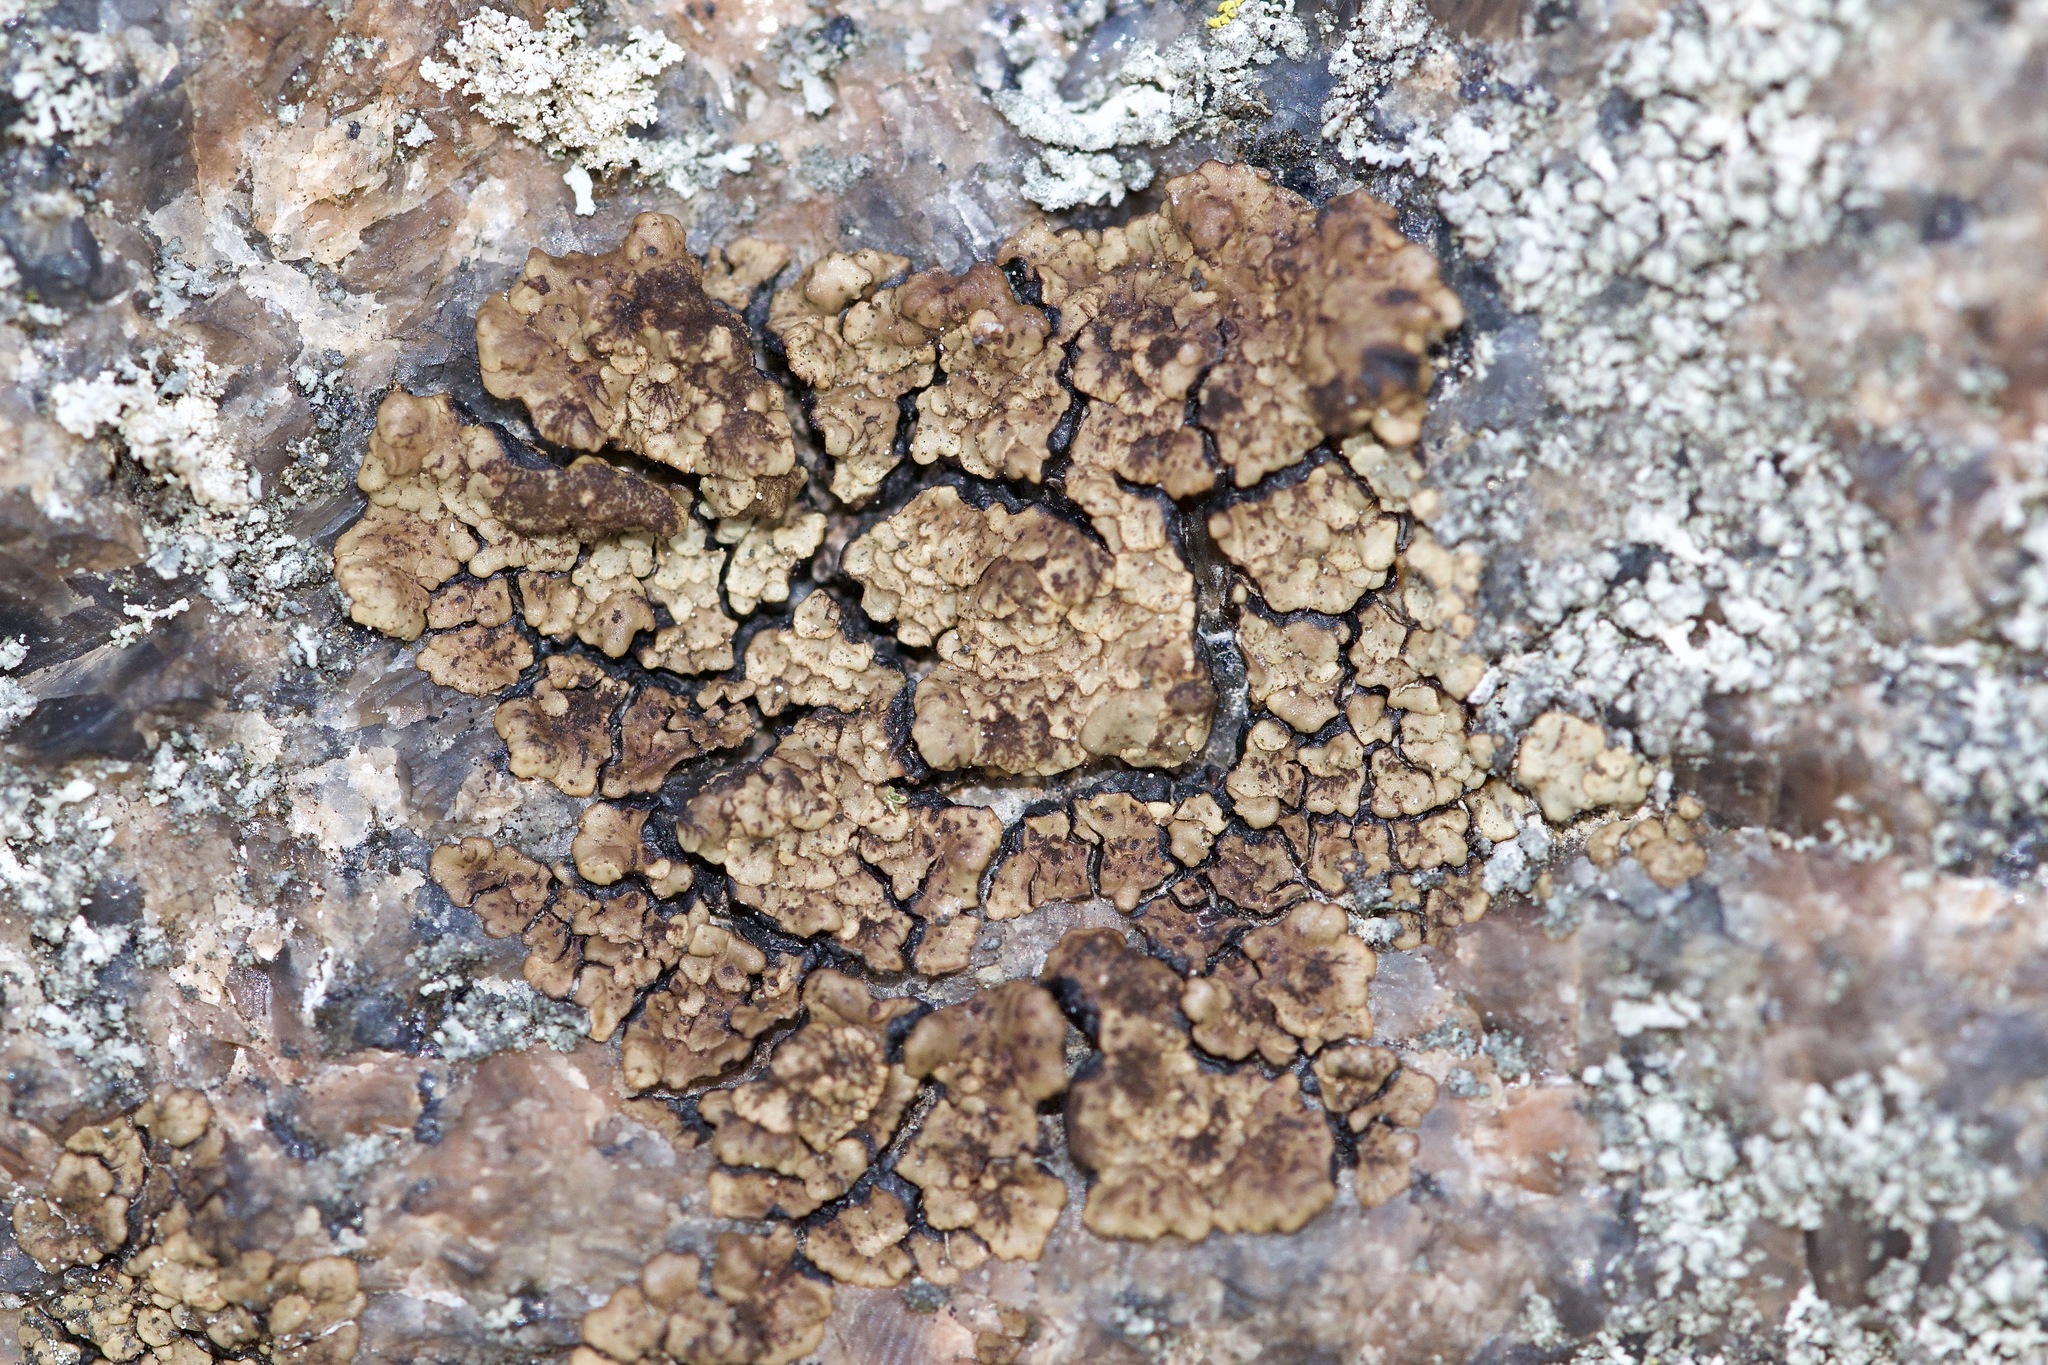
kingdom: Fungi
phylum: Ascomycota
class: Lecanoromycetes
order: Acarosporales
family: Acarosporaceae
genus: Acarospora
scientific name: Acarospora fuscata
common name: Brown cobblestone lichen
